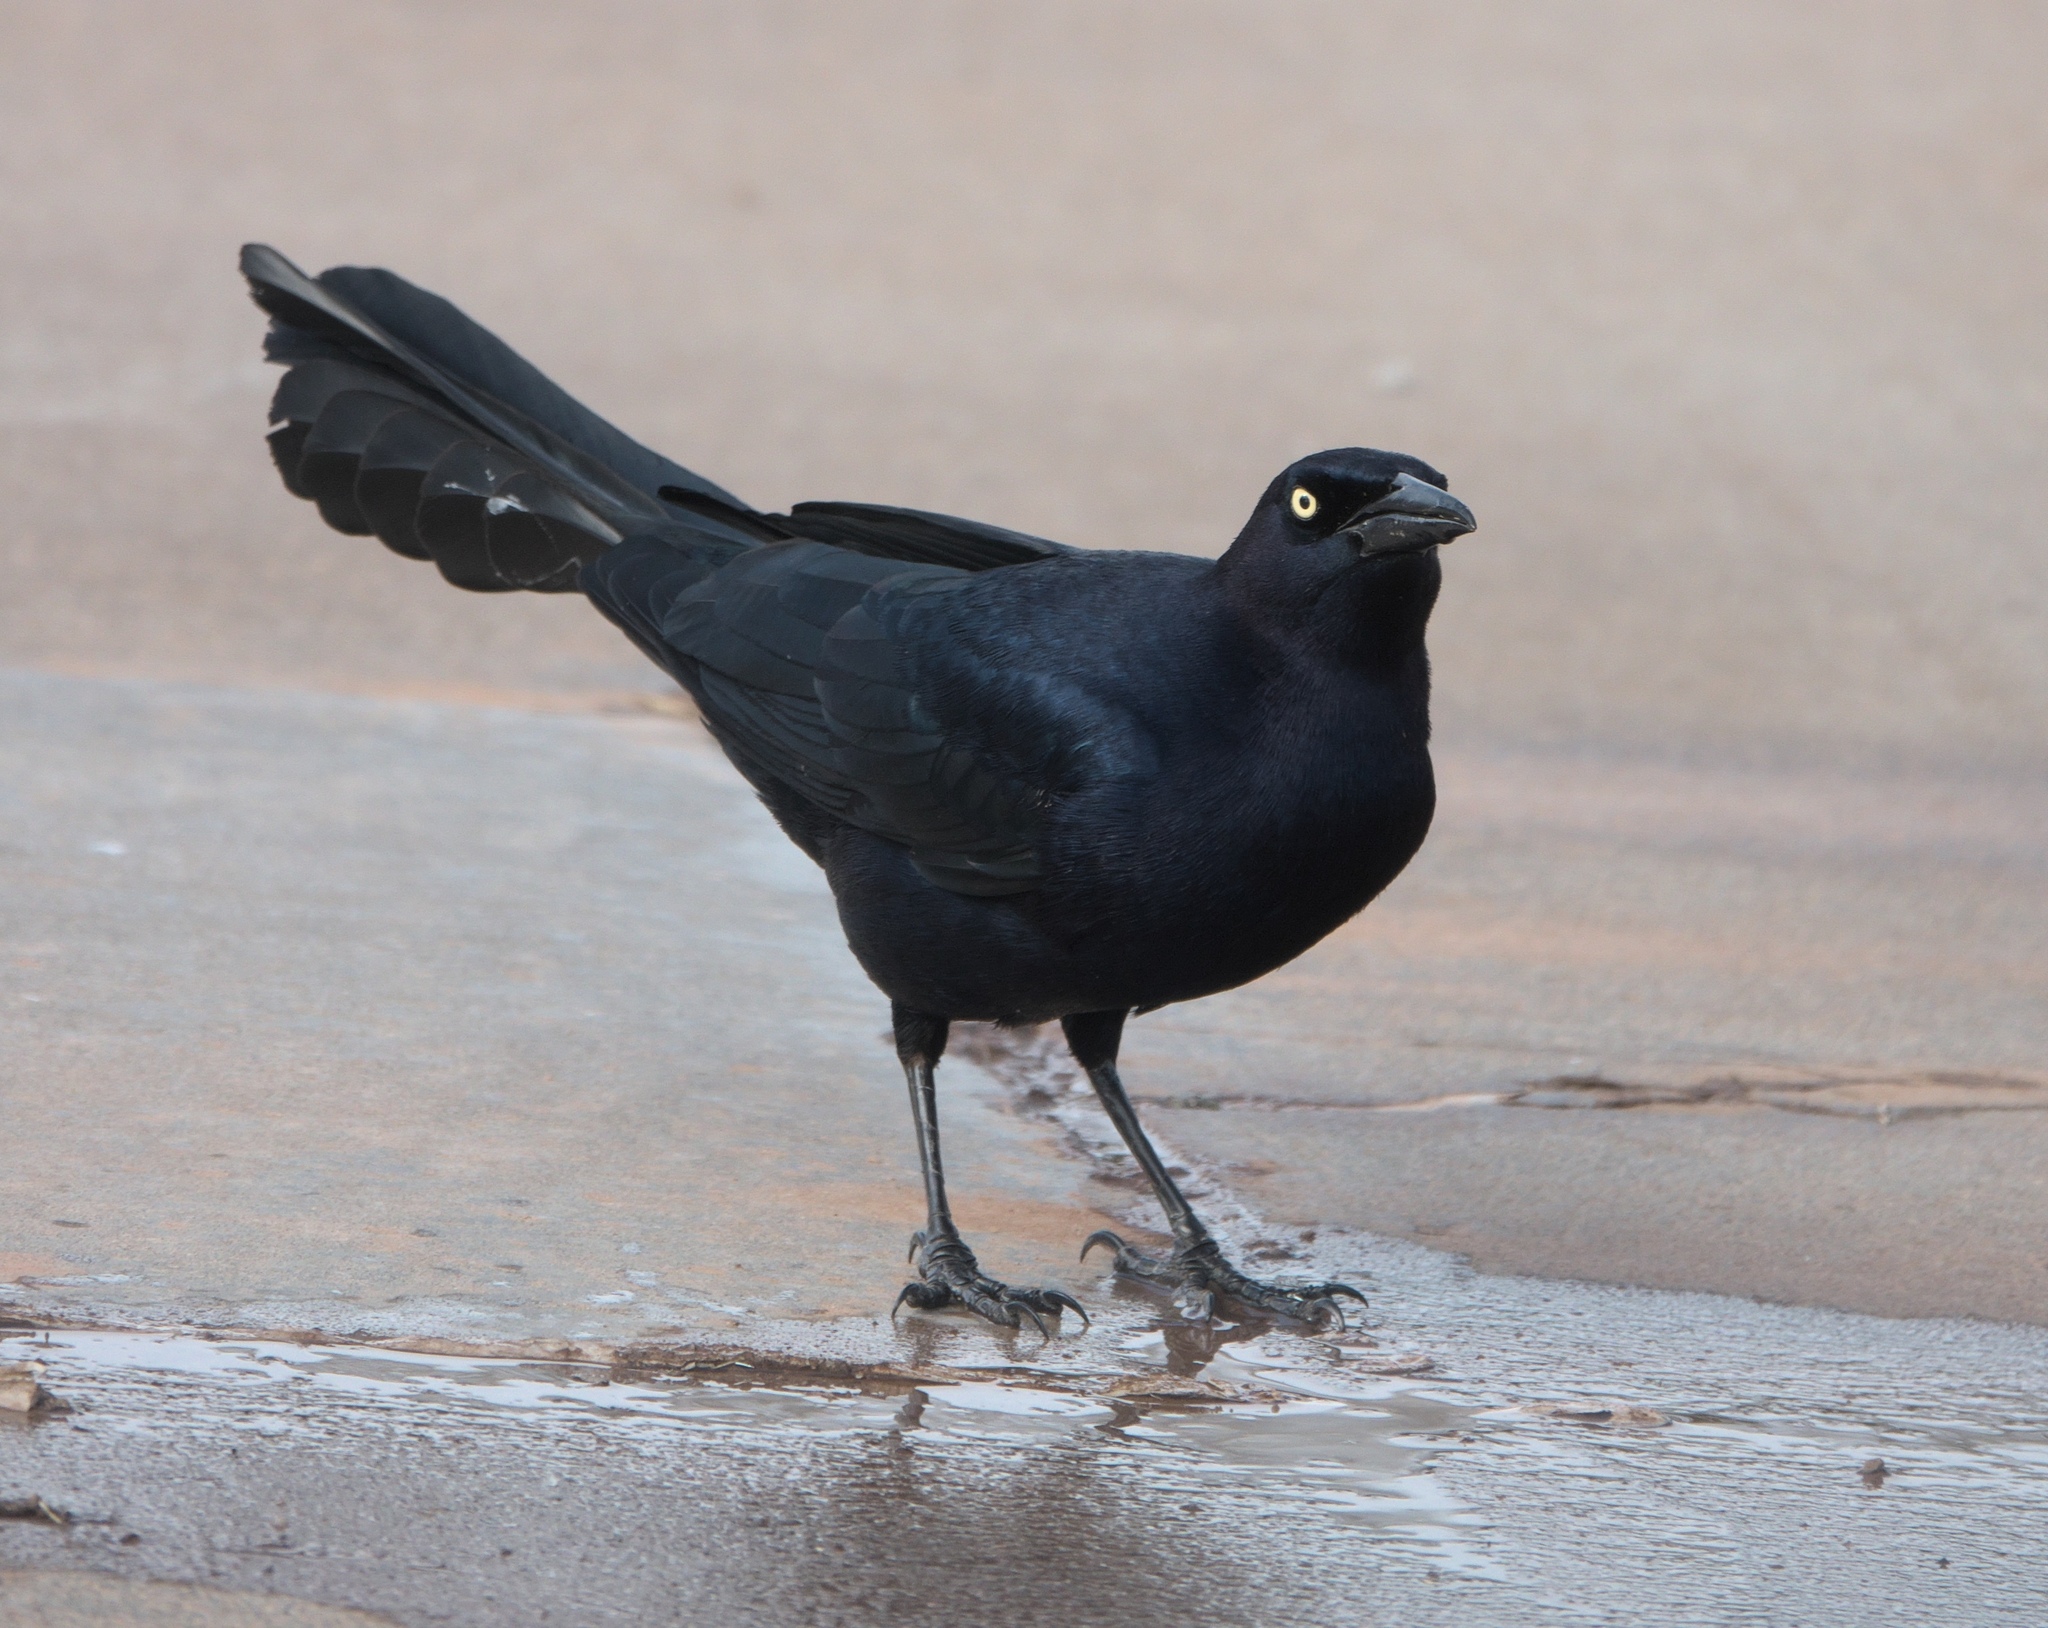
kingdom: Animalia
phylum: Chordata
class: Aves
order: Passeriformes
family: Icteridae
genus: Quiscalus
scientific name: Quiscalus mexicanus
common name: Great-tailed grackle
